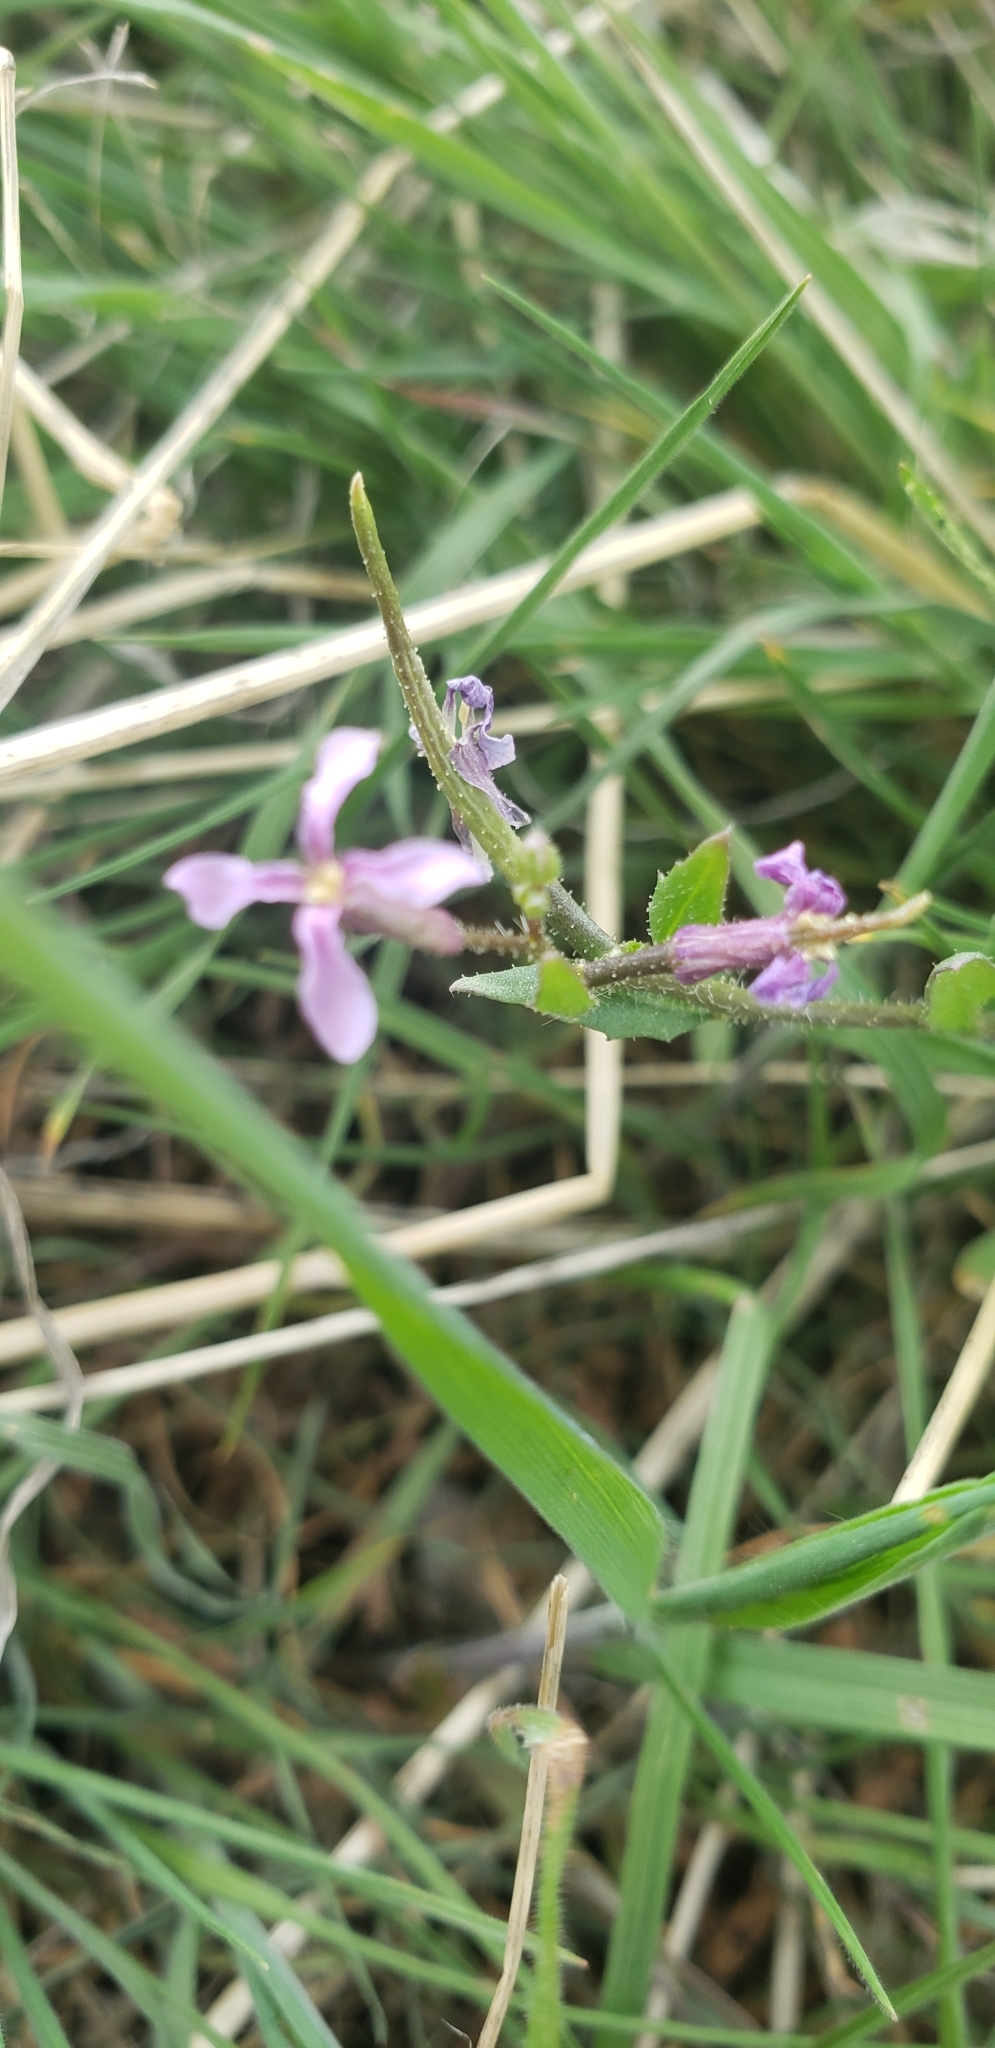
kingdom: Plantae
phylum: Tracheophyta
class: Magnoliopsida
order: Brassicales
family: Brassicaceae
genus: Chorispora
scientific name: Chorispora tenella
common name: Crossflower
